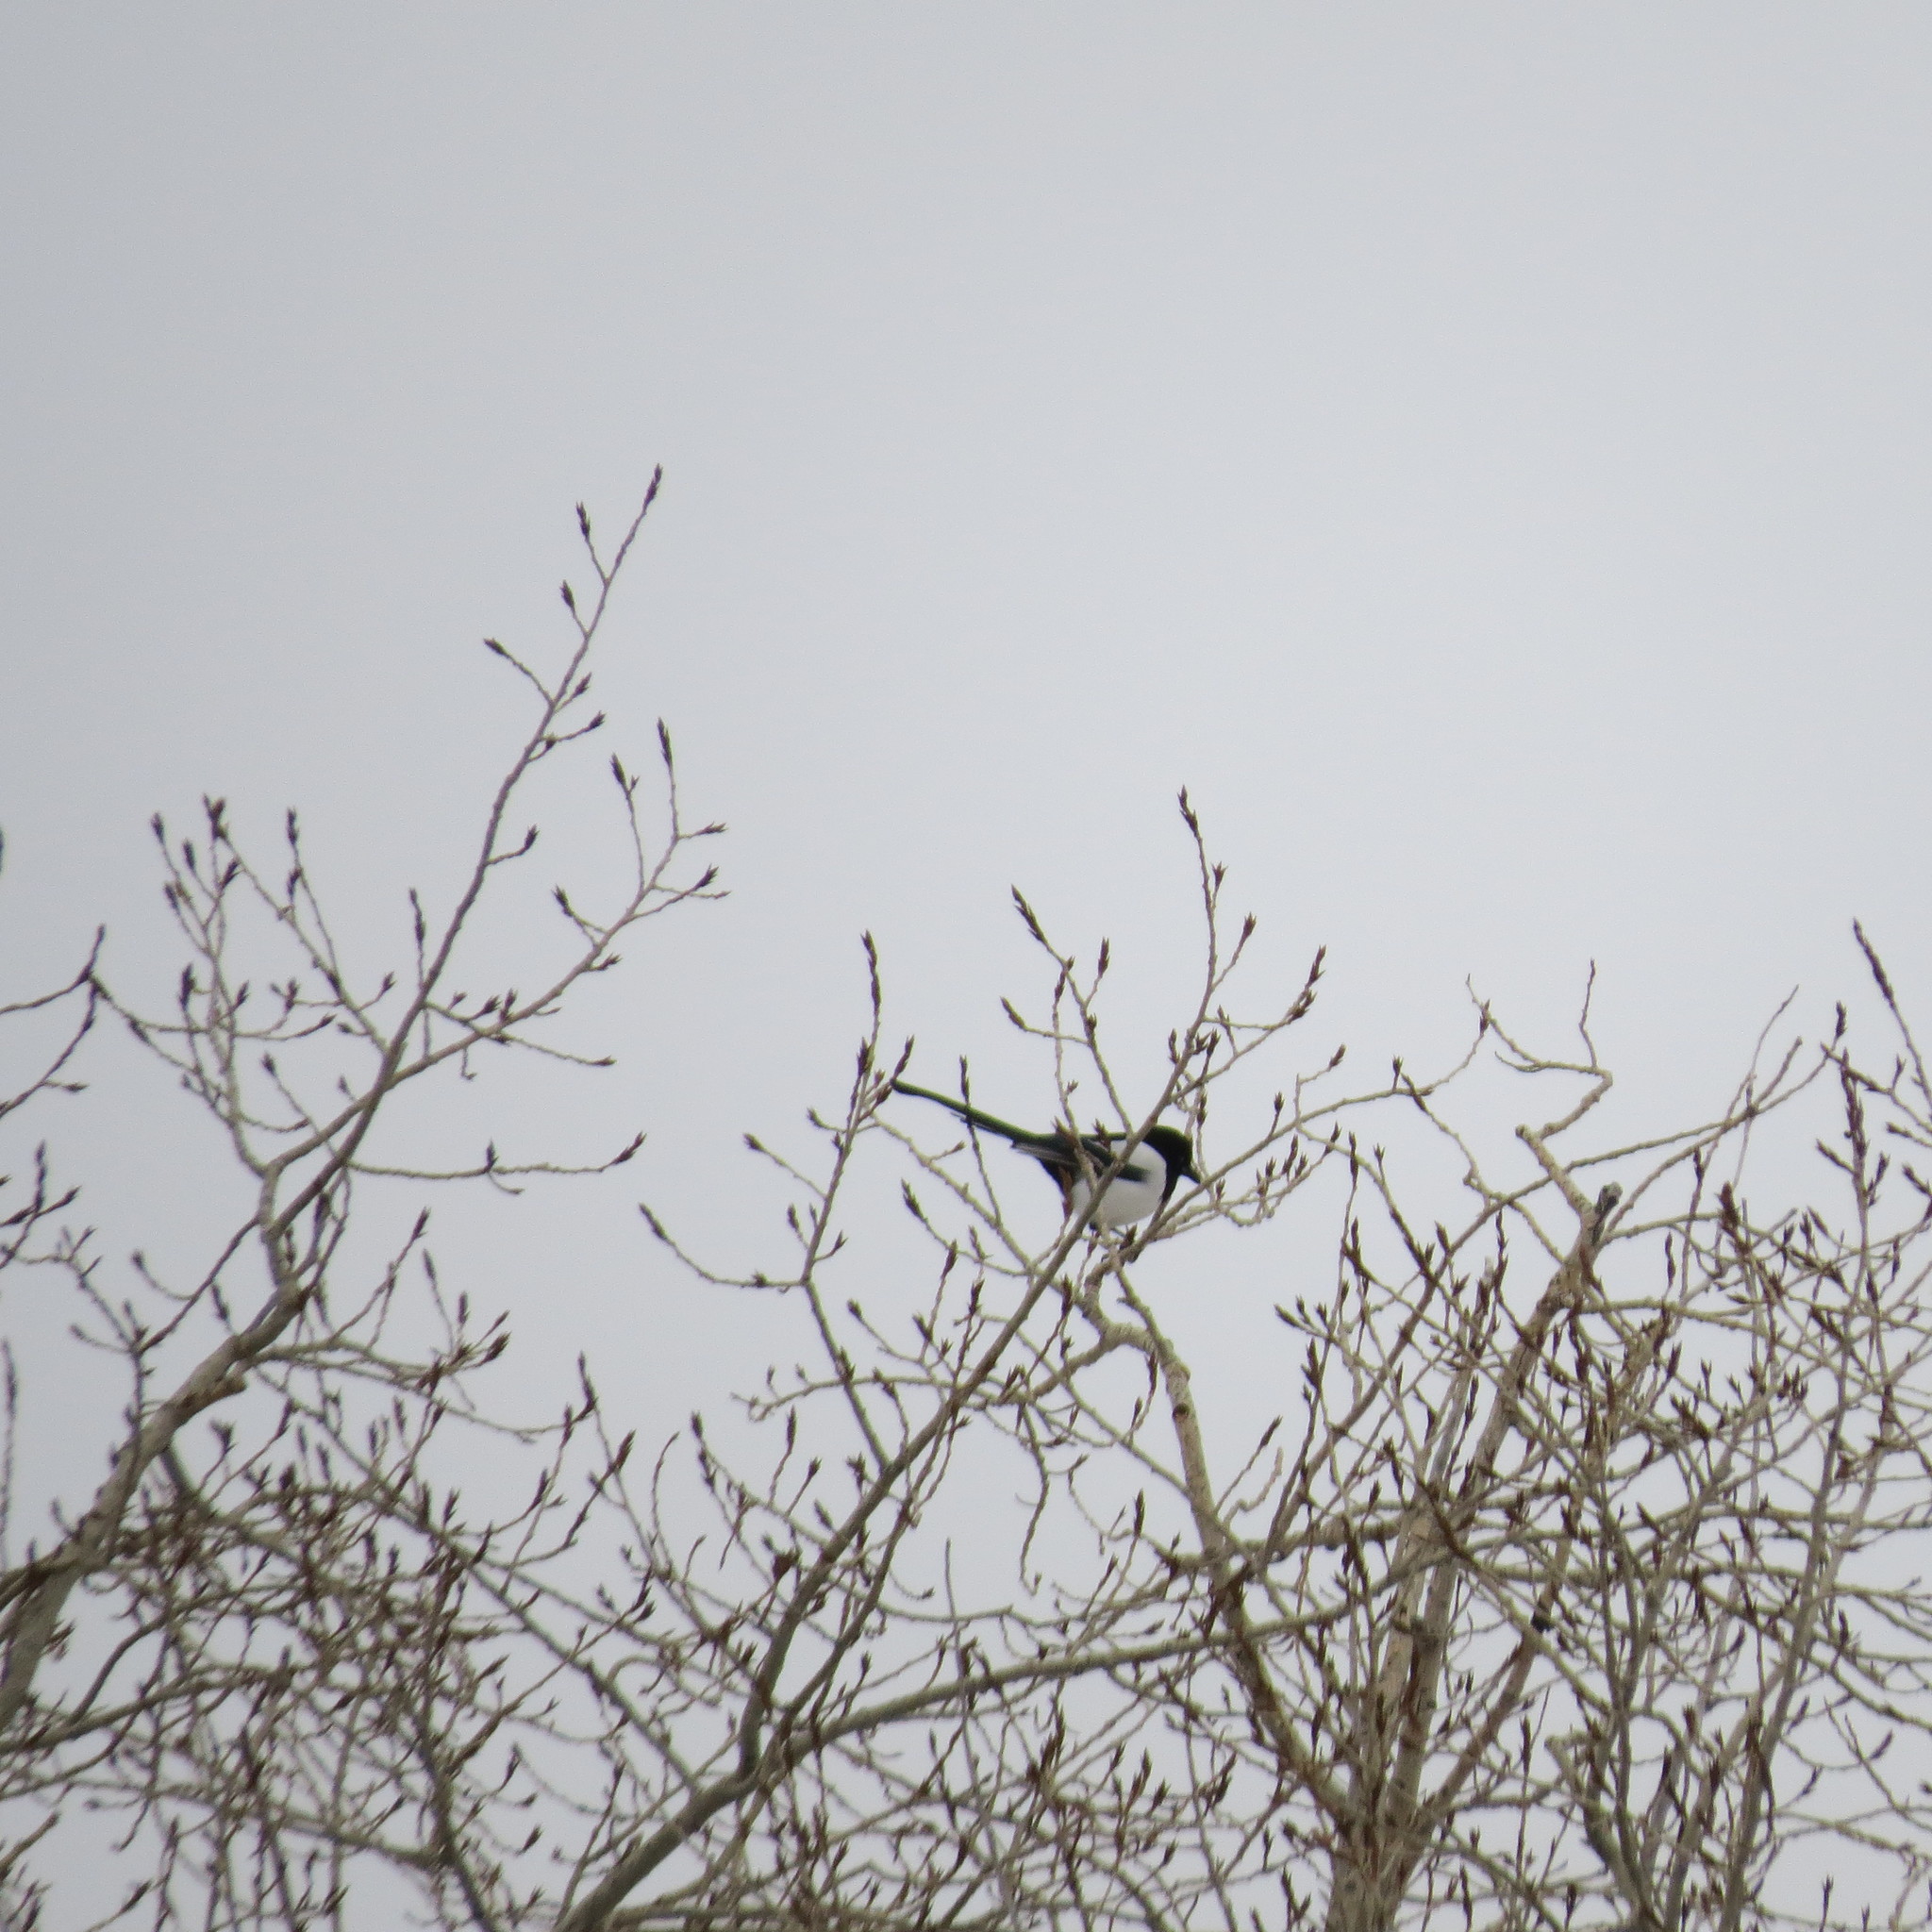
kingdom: Animalia
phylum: Chordata
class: Aves
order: Passeriformes
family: Corvidae
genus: Pica
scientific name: Pica pica
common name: Eurasian magpie
